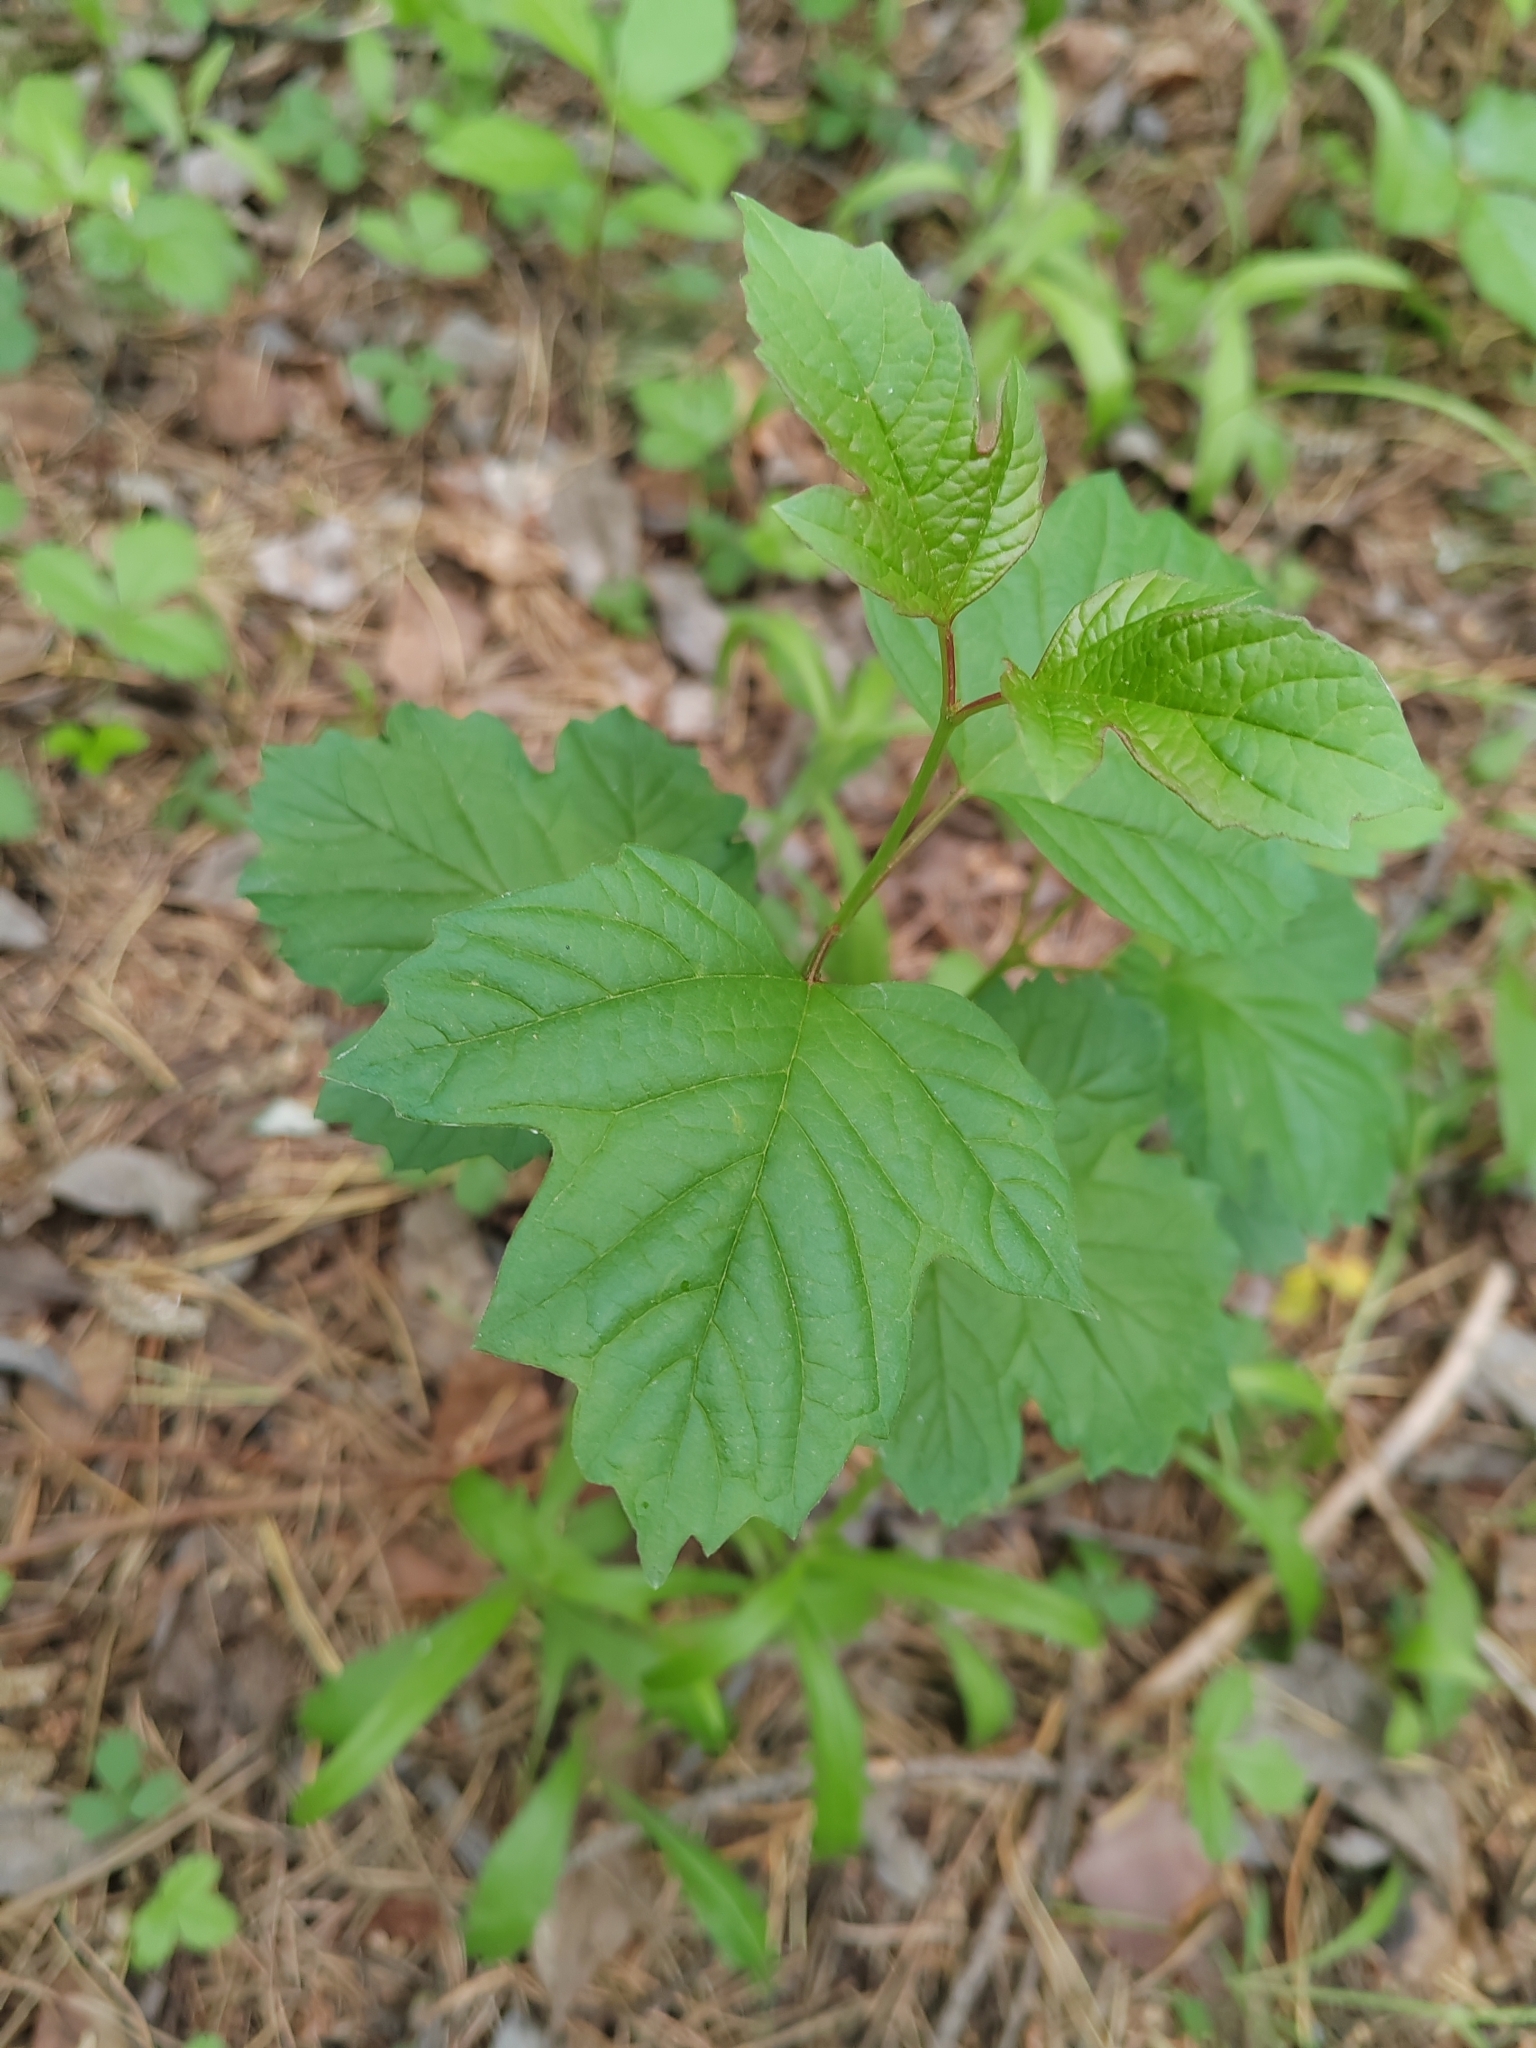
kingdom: Plantae
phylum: Tracheophyta
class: Magnoliopsida
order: Dipsacales
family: Viburnaceae
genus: Viburnum
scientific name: Viburnum opulus
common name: Guelder-rose
